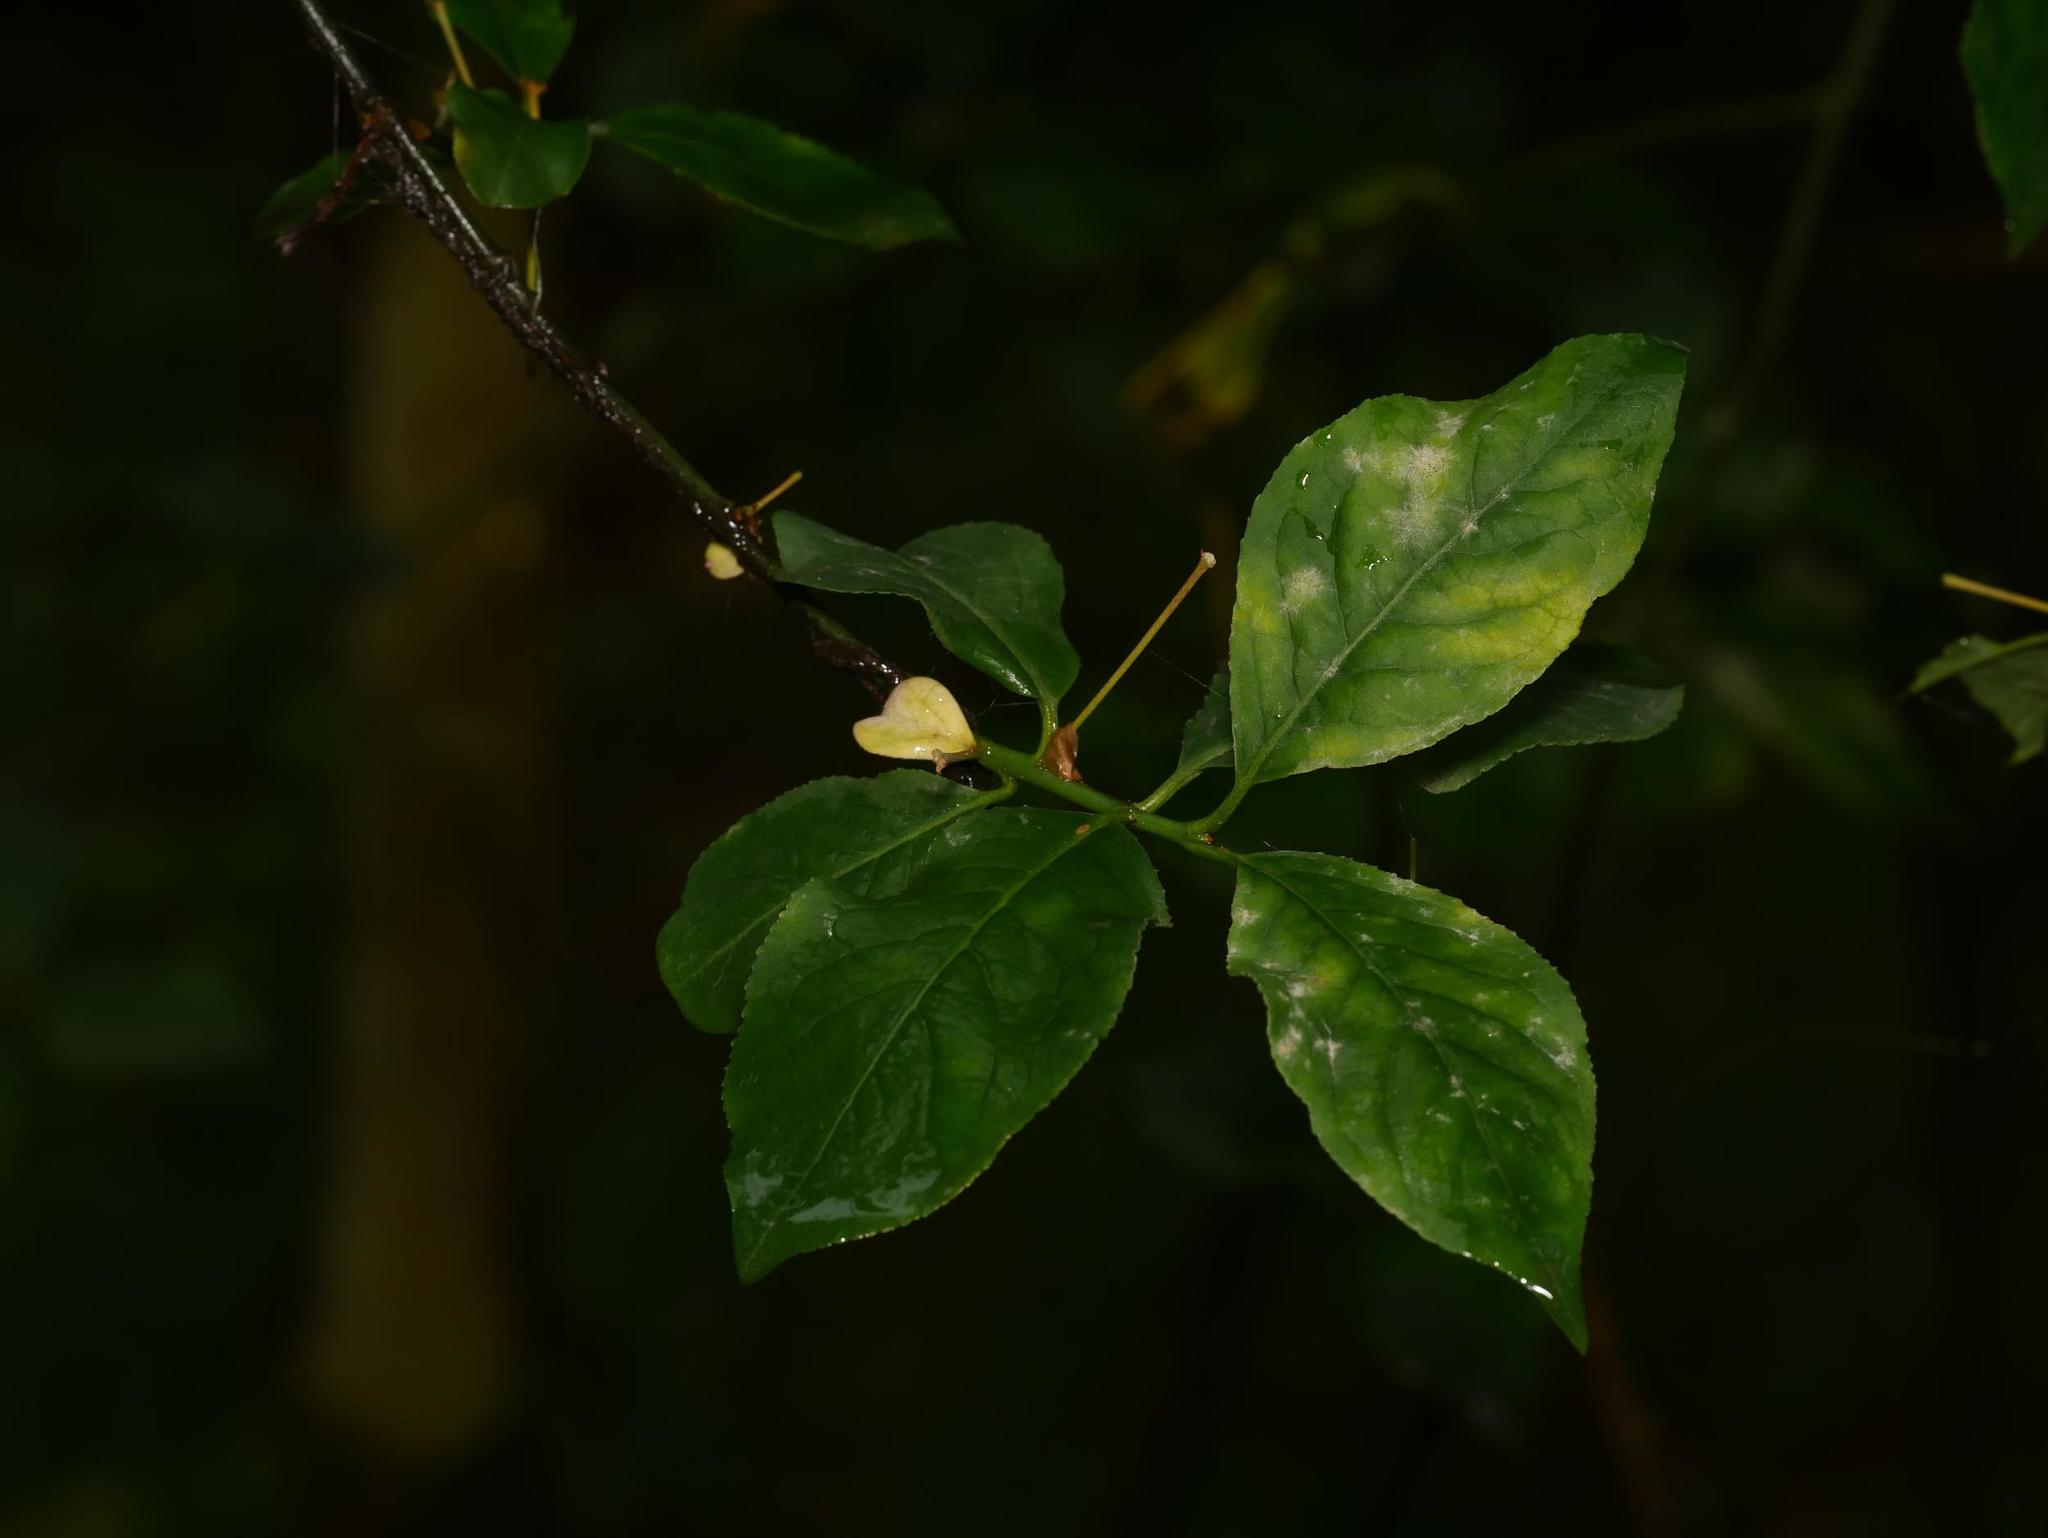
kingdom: Plantae
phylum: Tracheophyta
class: Magnoliopsida
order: Celastrales
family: Celastraceae
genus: Euonymus
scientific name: Euonymus europaeus
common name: Spindle
